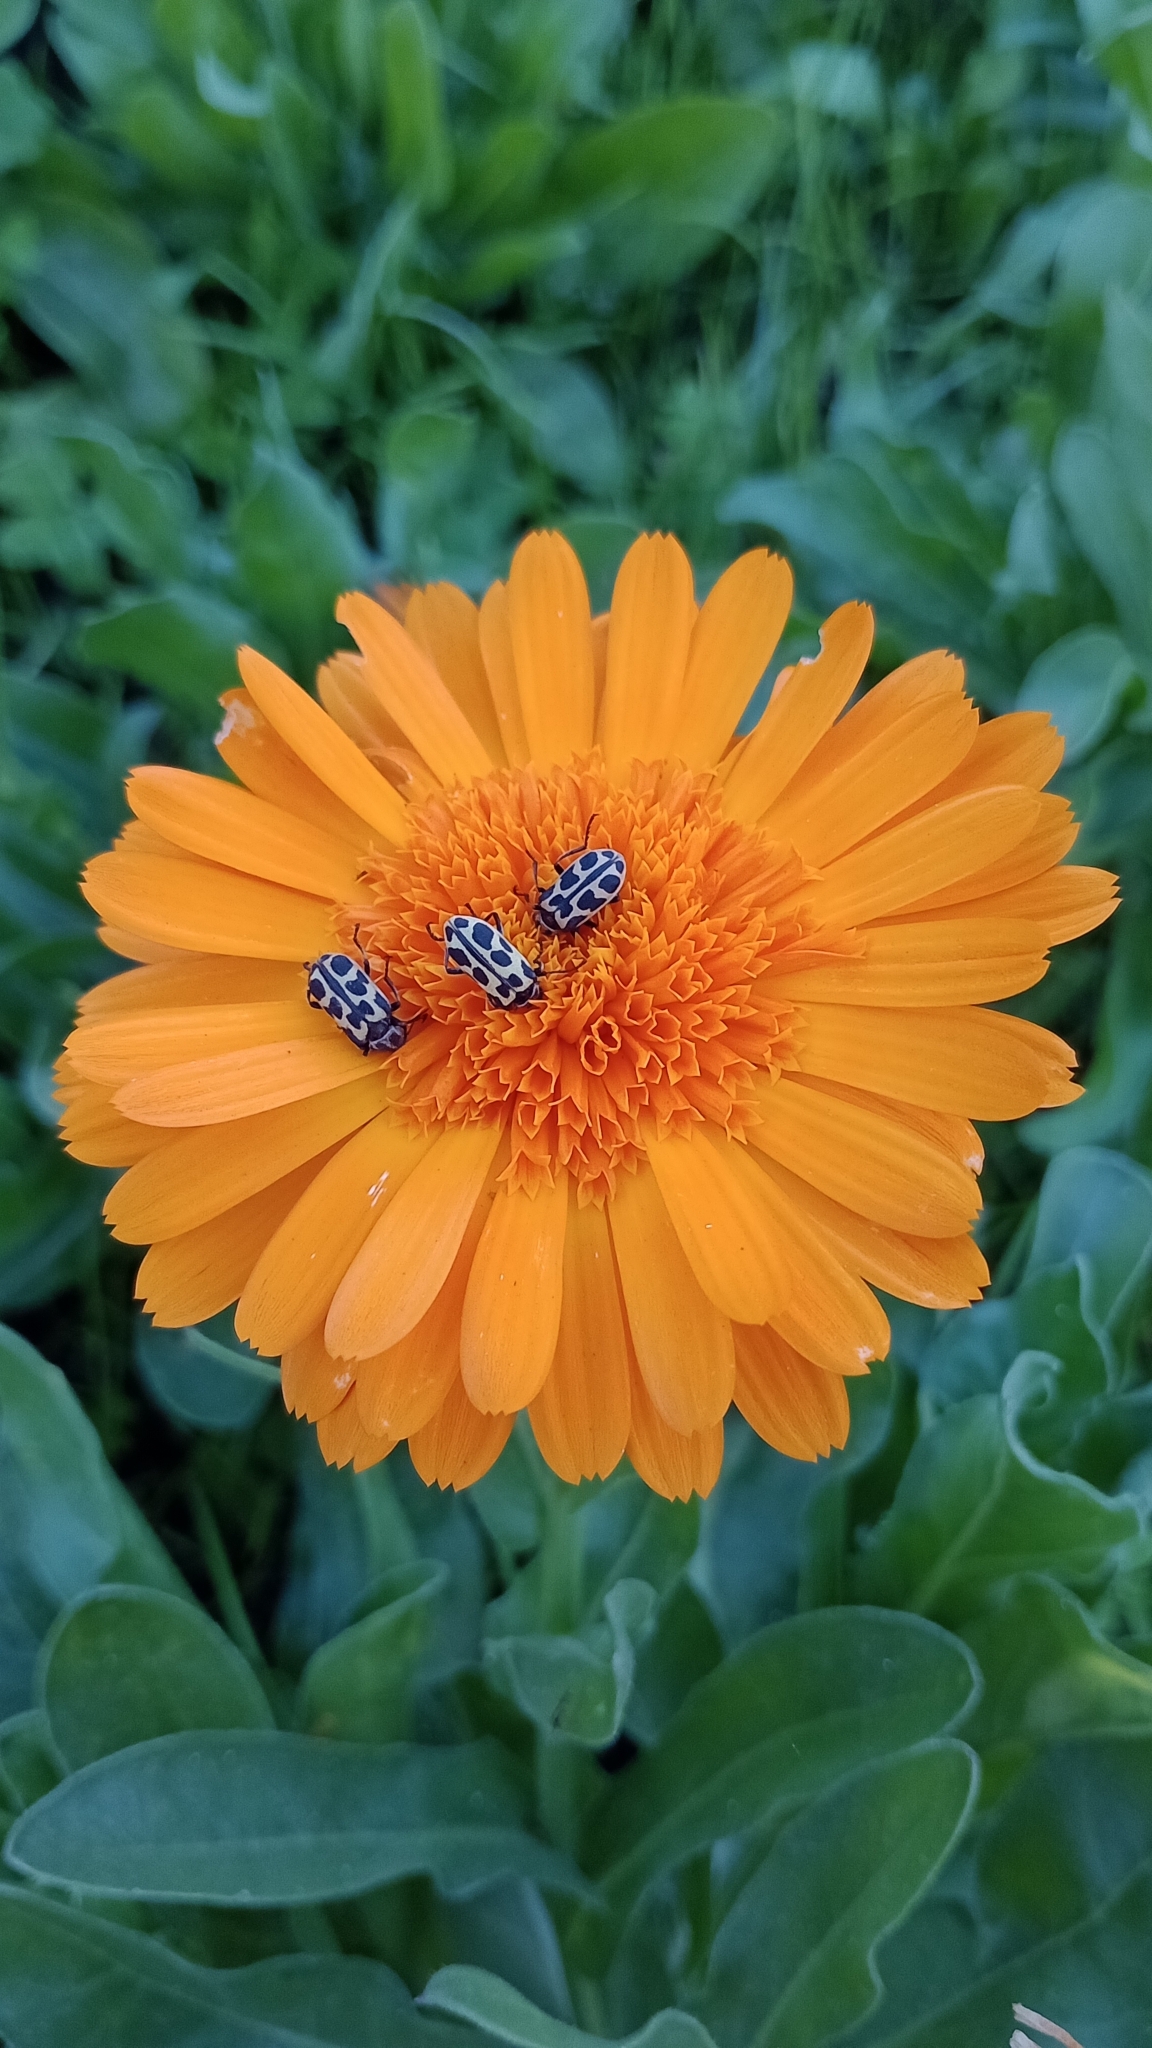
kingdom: Animalia
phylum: Arthropoda
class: Insecta
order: Coleoptera
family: Melyridae
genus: Astylus
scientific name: Astylus atromaculatus
